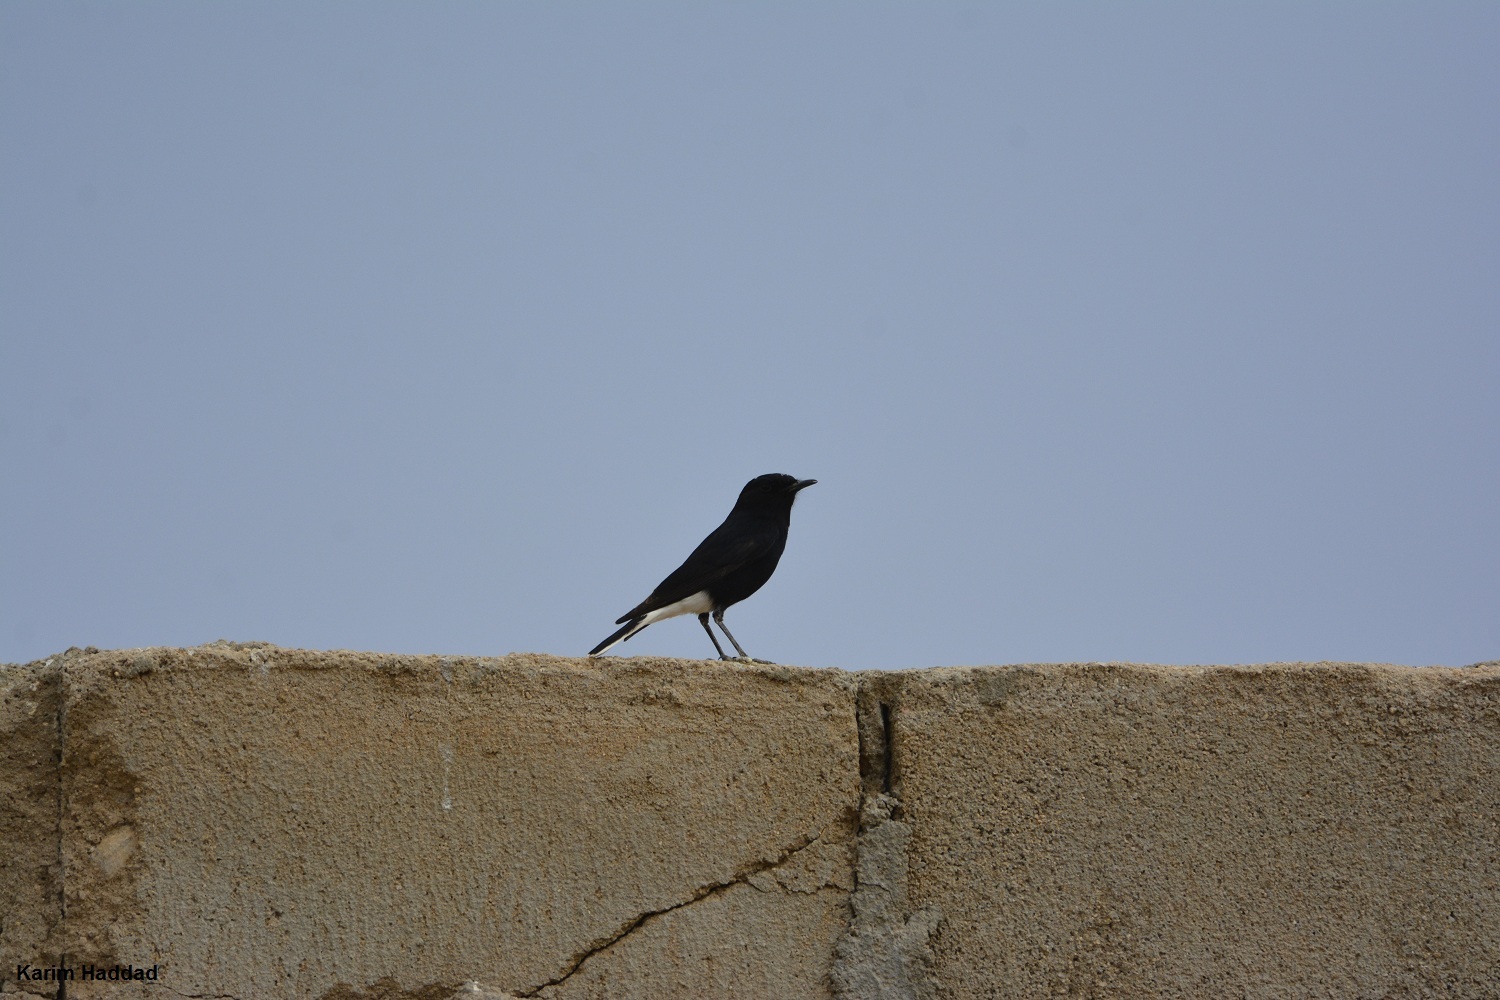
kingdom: Animalia
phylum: Chordata
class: Aves
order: Passeriformes
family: Muscicapidae
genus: Oenanthe
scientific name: Oenanthe leucopyga
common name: White-crowned wheatear
